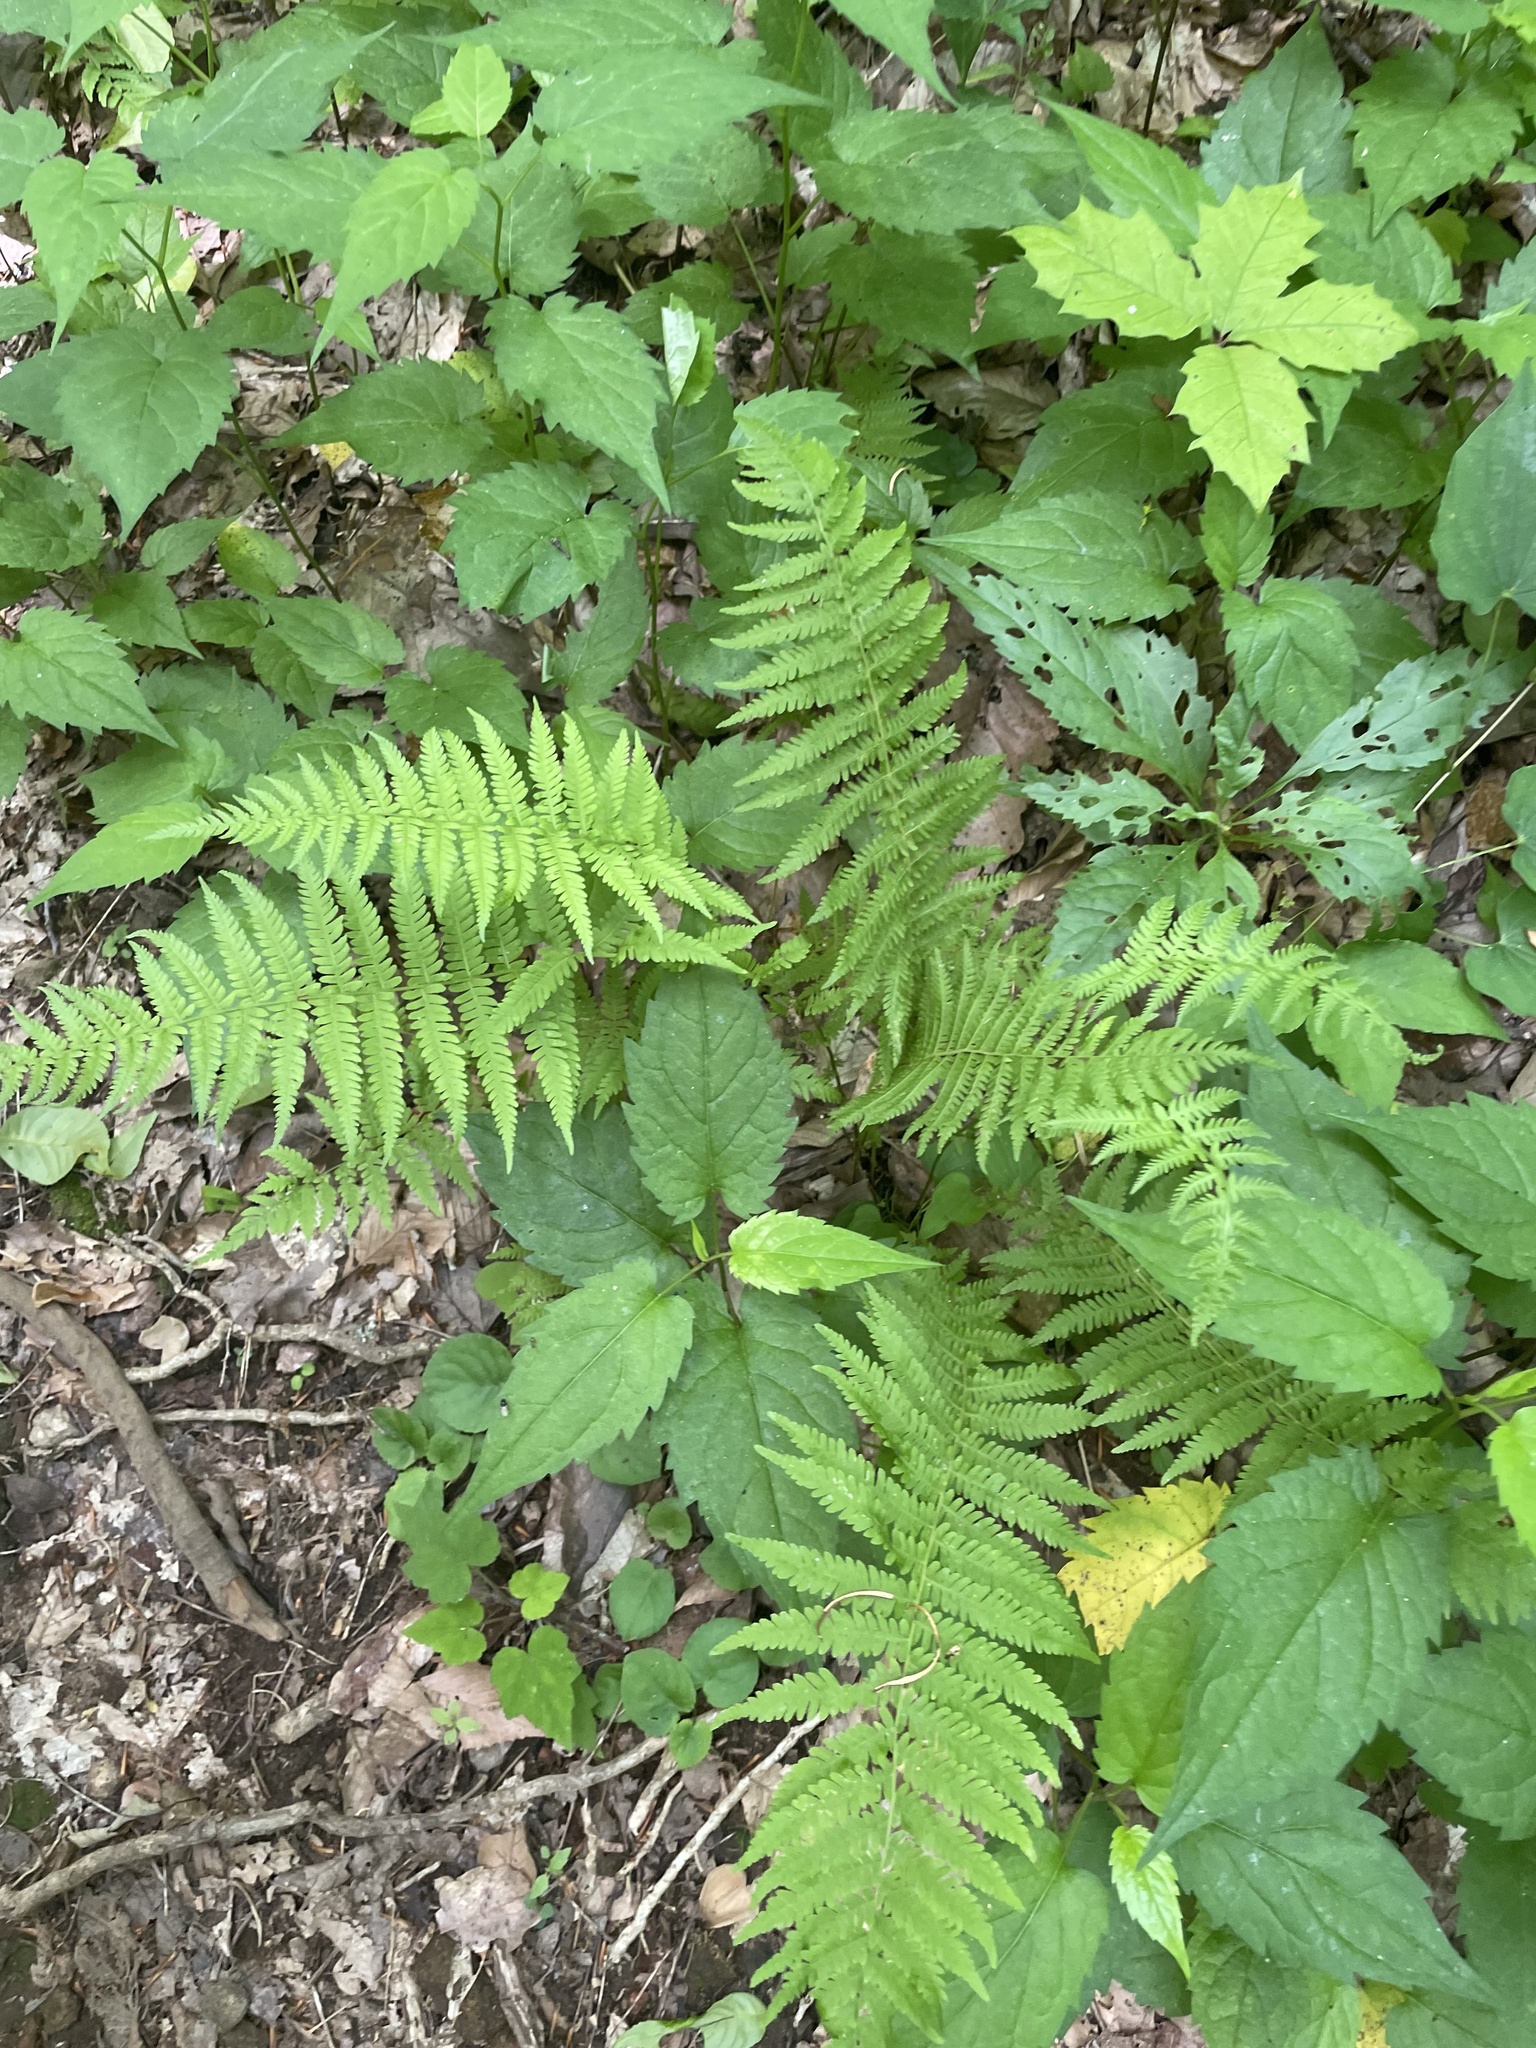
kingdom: Plantae
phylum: Tracheophyta
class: Polypodiopsida
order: Polypodiales
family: Thelypteridaceae
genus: Amauropelta
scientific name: Amauropelta noveboracensis
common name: New york fern
